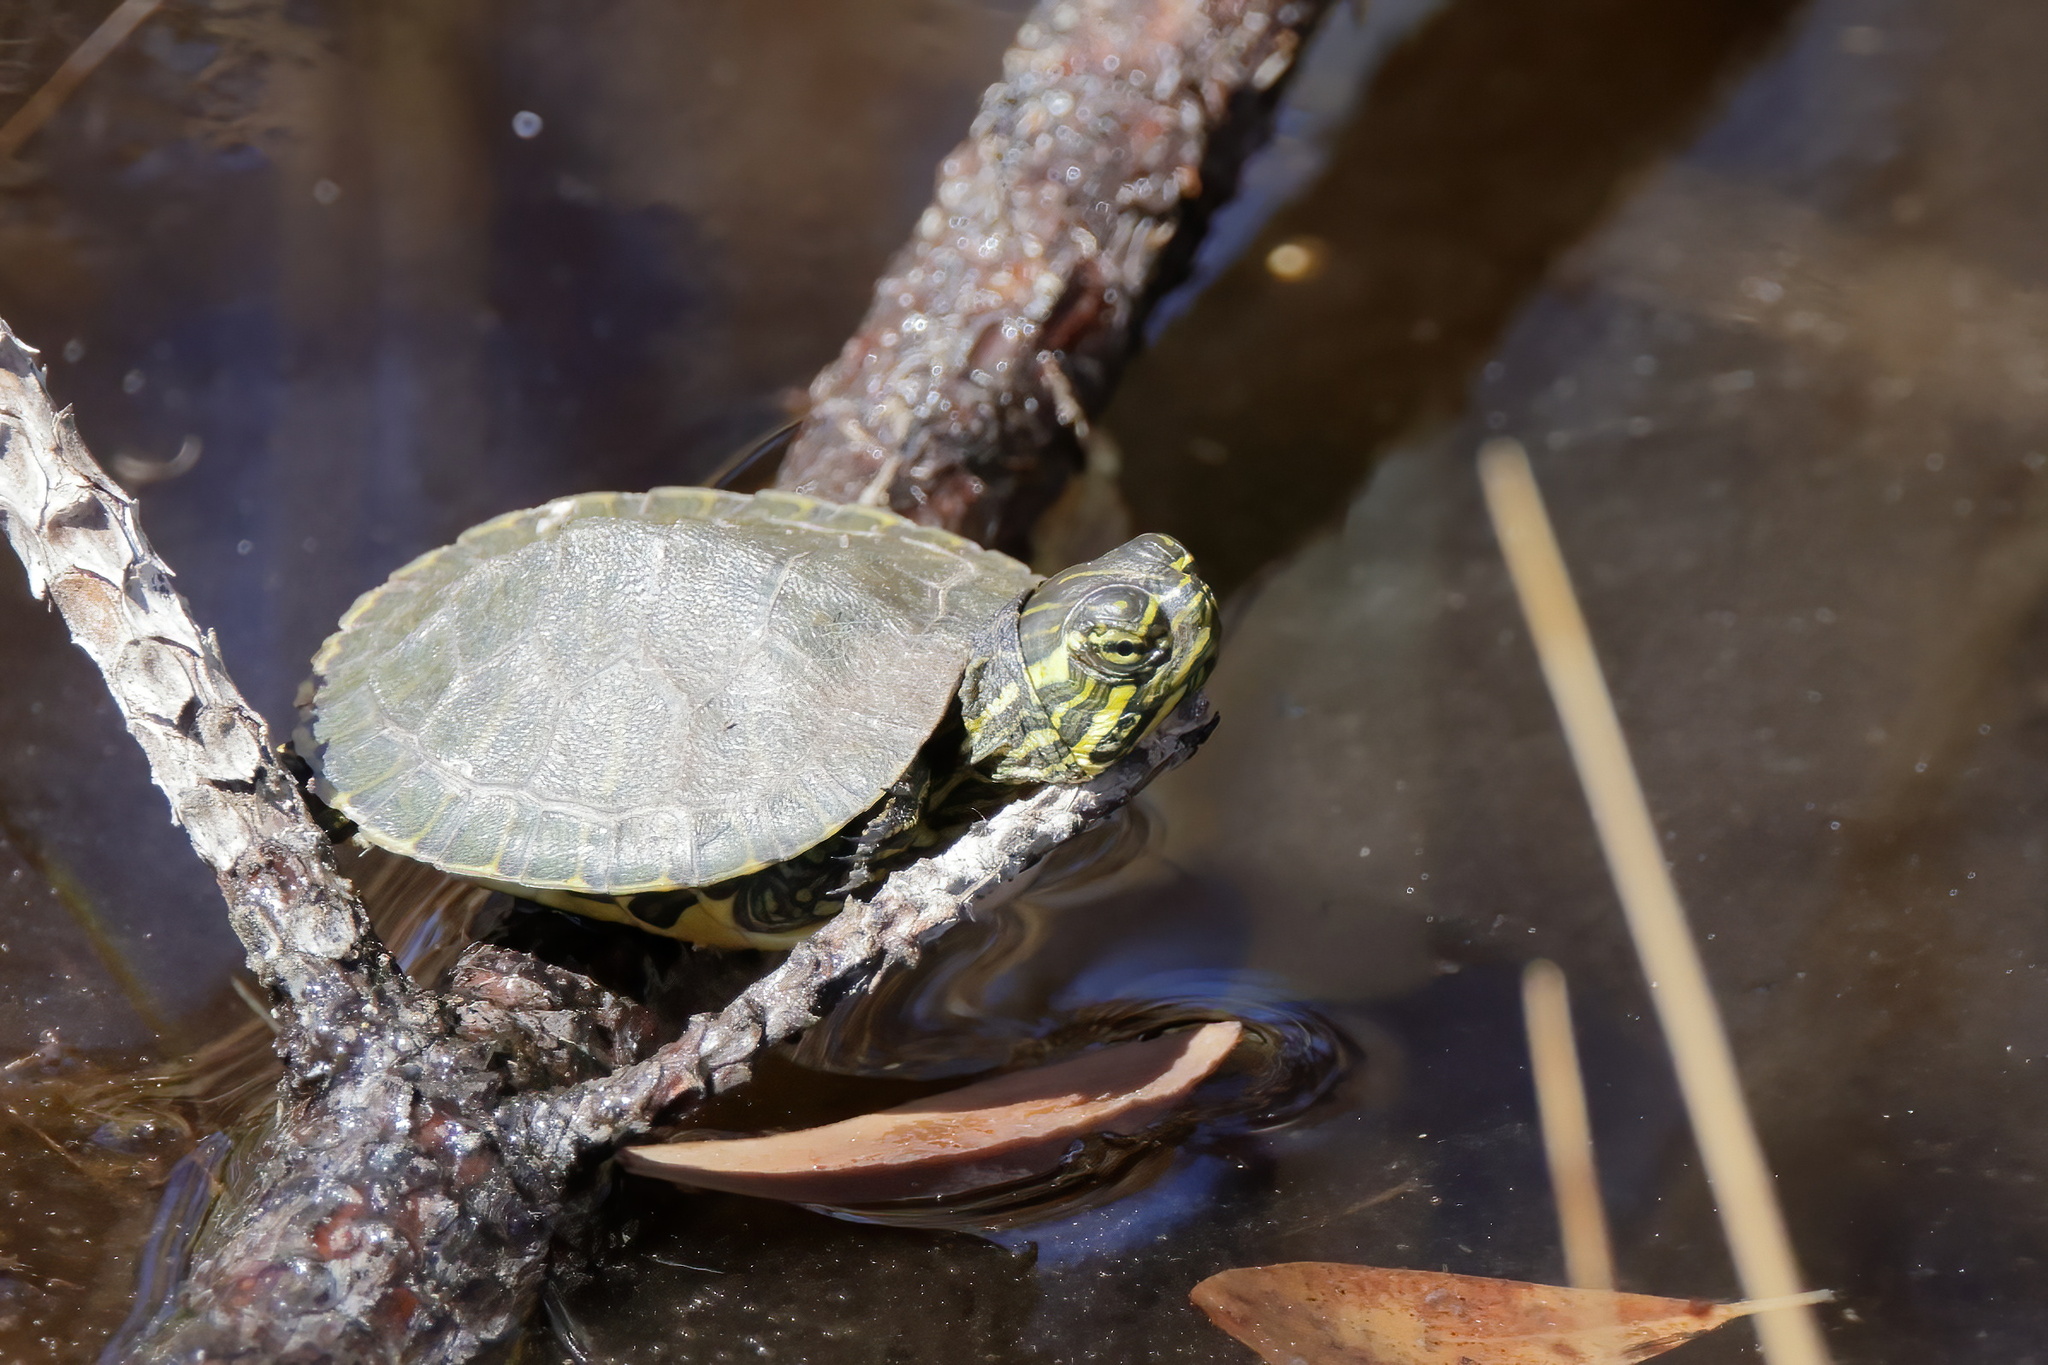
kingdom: Animalia
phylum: Chordata
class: Testudines
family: Emydidae
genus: Trachemys
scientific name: Trachemys scripta
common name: Slider
